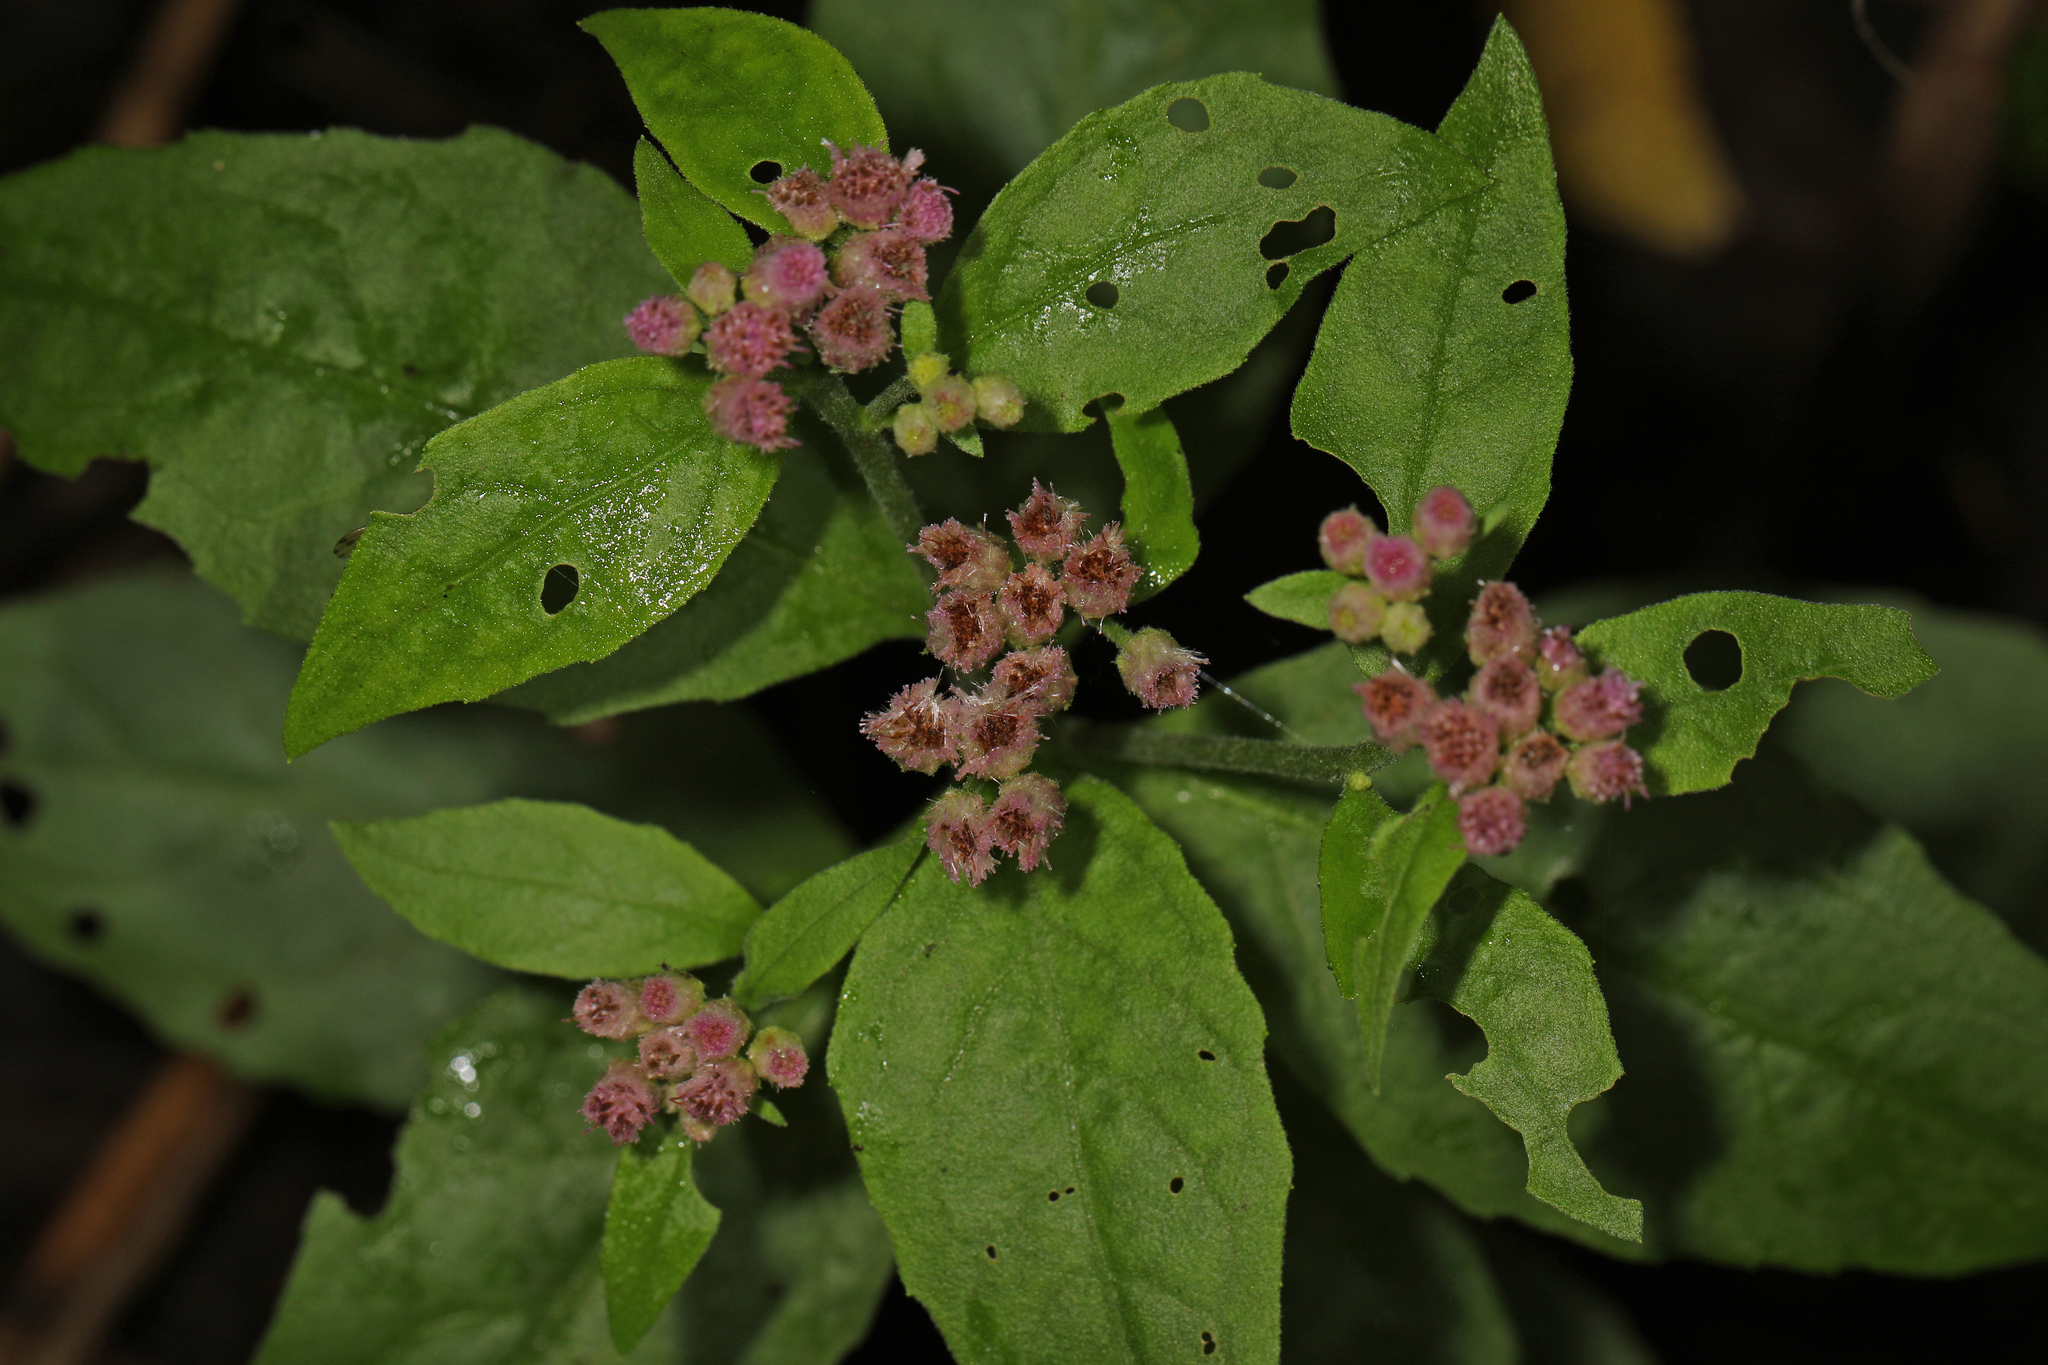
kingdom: Plantae
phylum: Tracheophyta
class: Magnoliopsida
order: Asterales
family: Asteraceae
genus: Pluchea
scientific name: Pluchea odorata
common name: Saltmarsh fleabane
